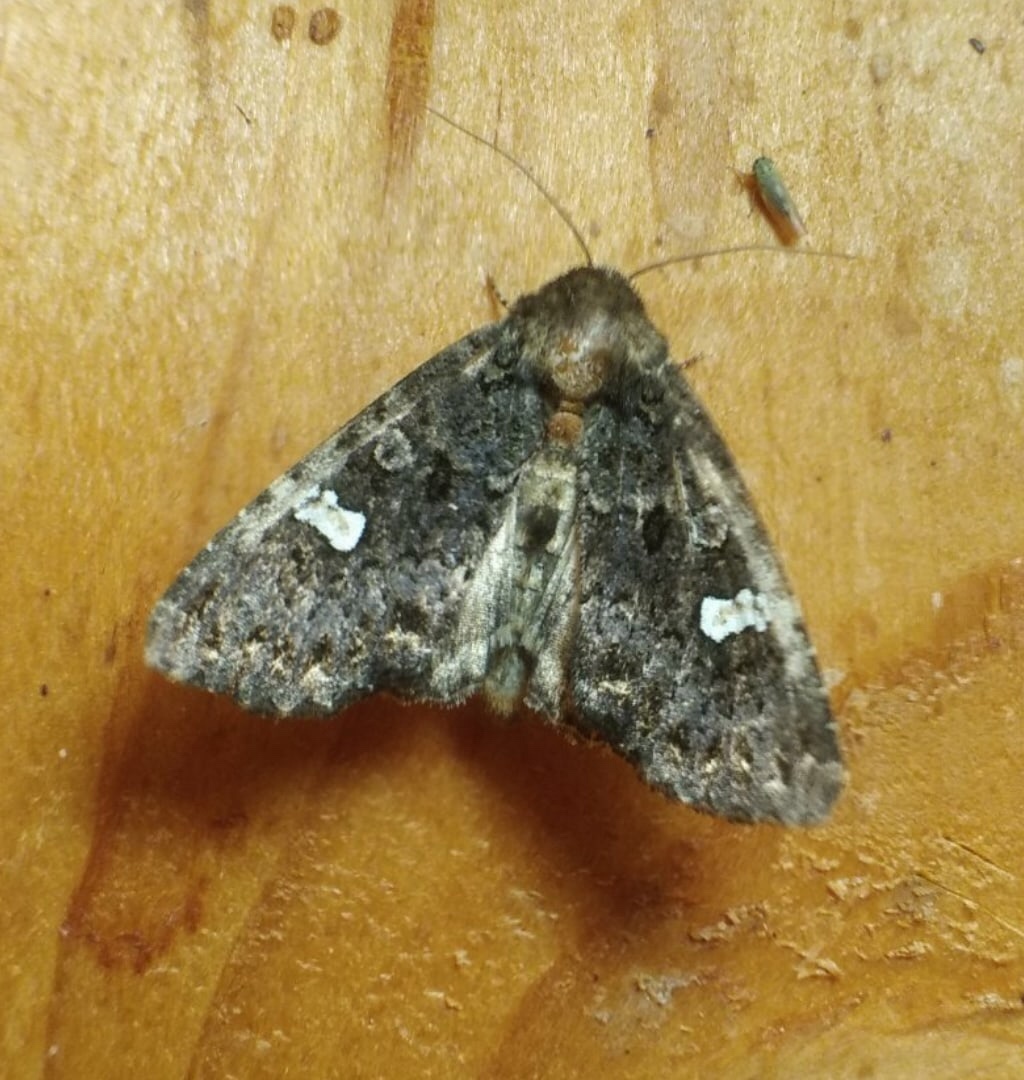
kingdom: Animalia
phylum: Arthropoda
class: Insecta
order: Lepidoptera
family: Noctuidae
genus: Melanchra
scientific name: Melanchra persicariae
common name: Dot moth
